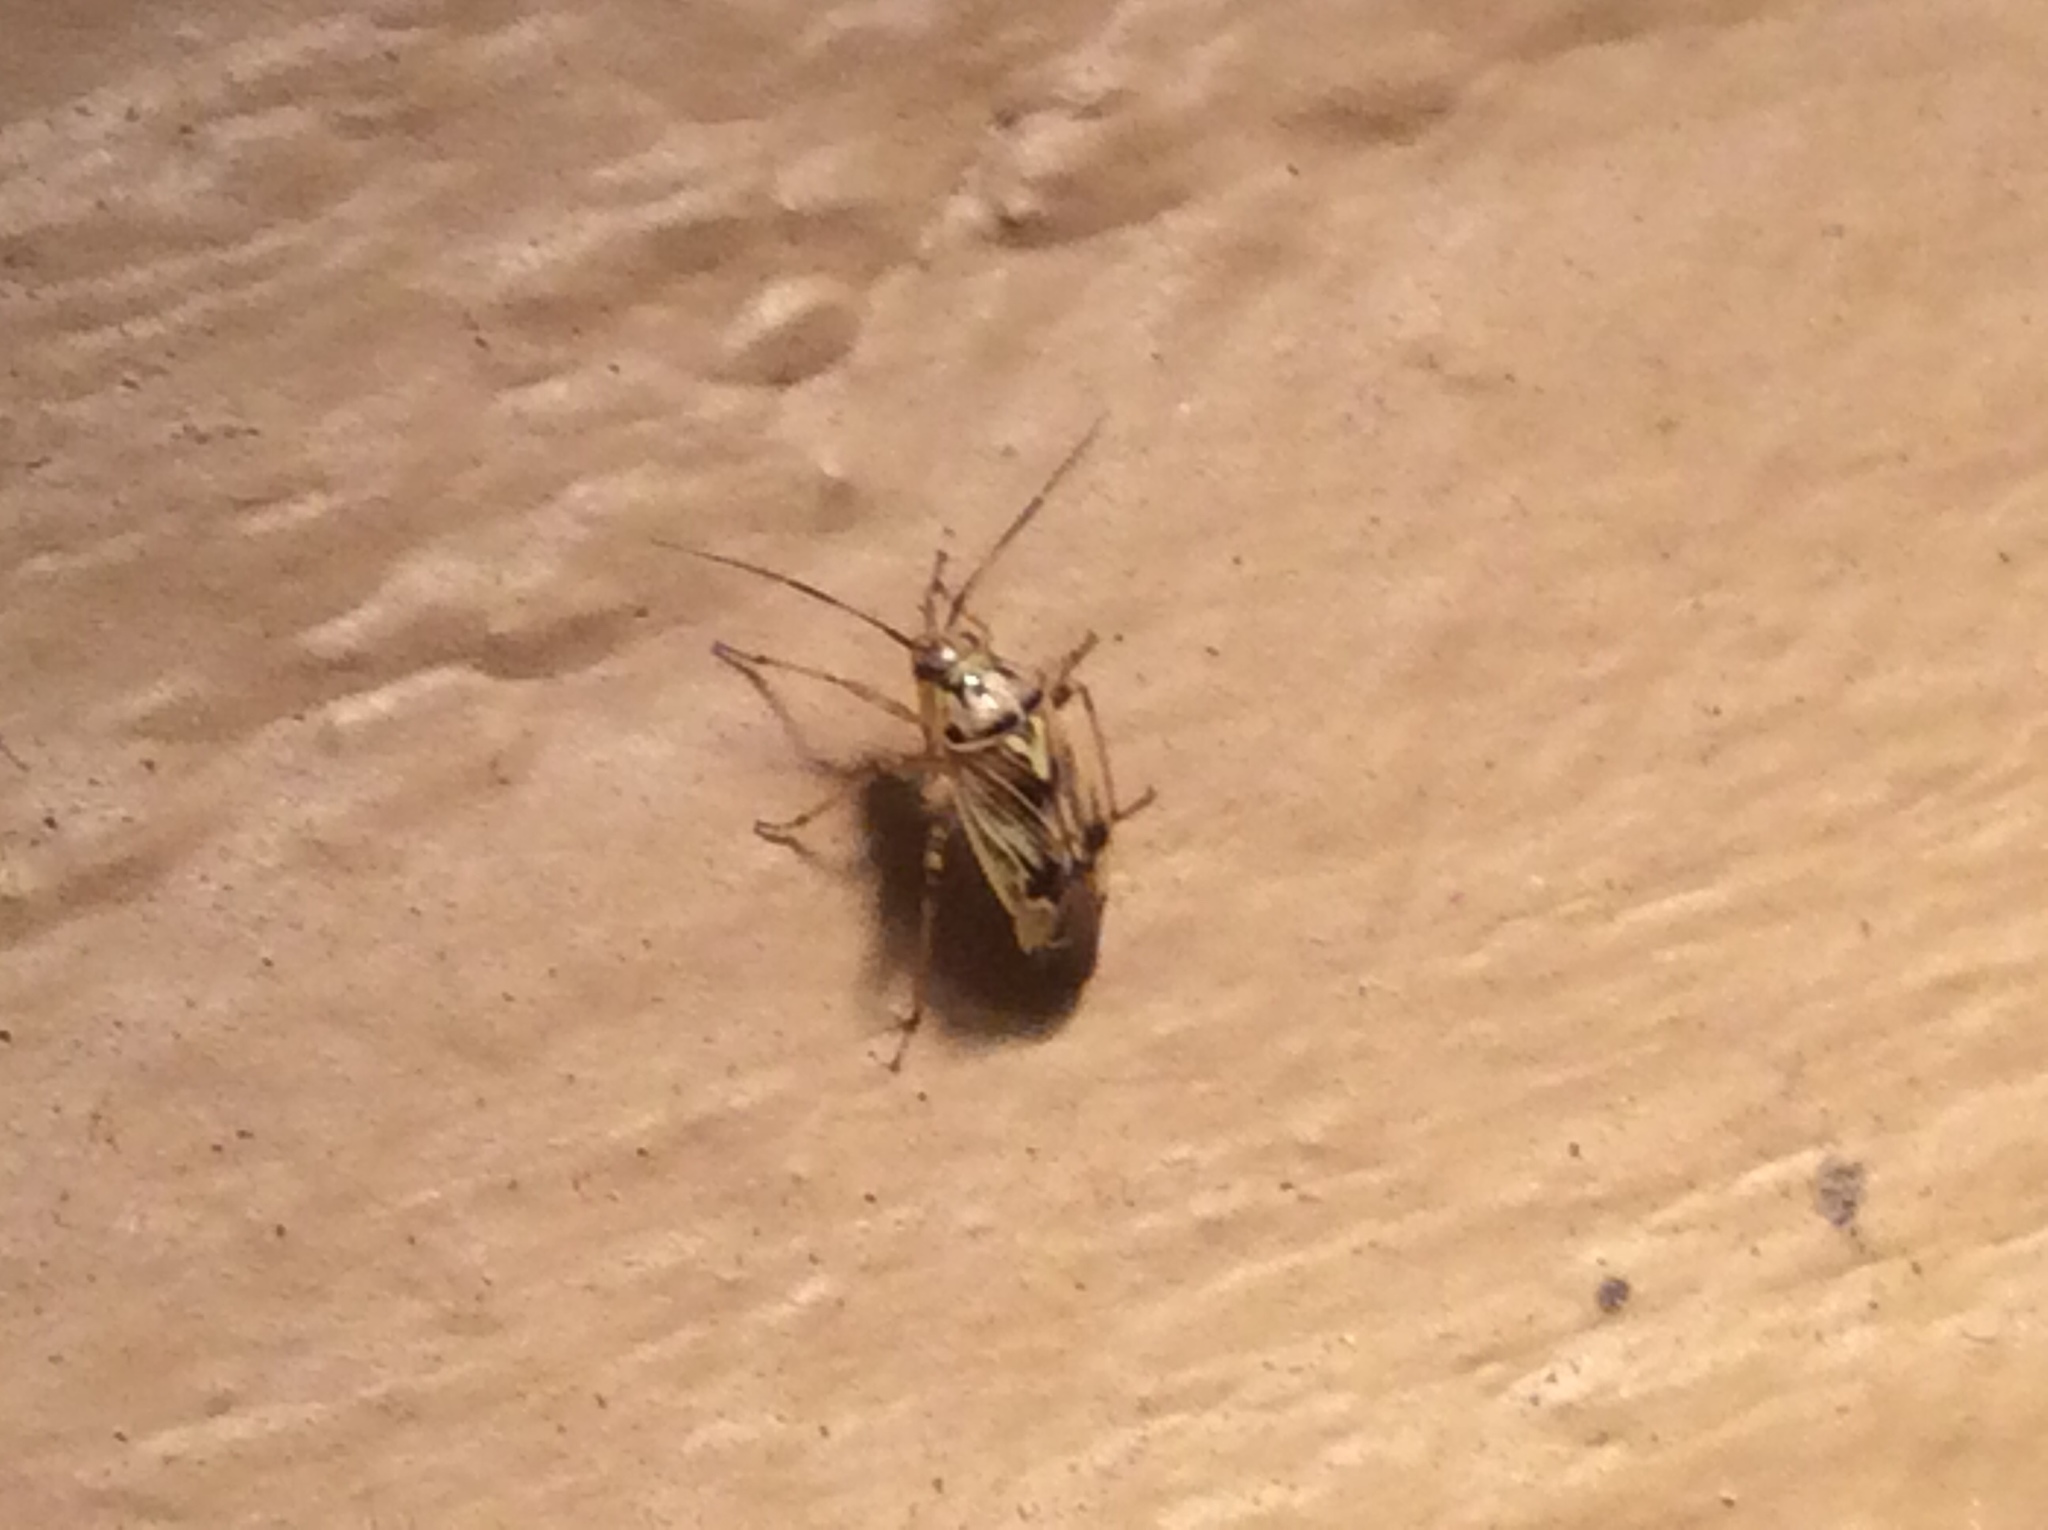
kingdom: Animalia
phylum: Arthropoda
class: Insecta
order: Hemiptera
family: Miridae
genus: Lygus
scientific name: Lygus lineolaris
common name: North american tarnished plant bug
